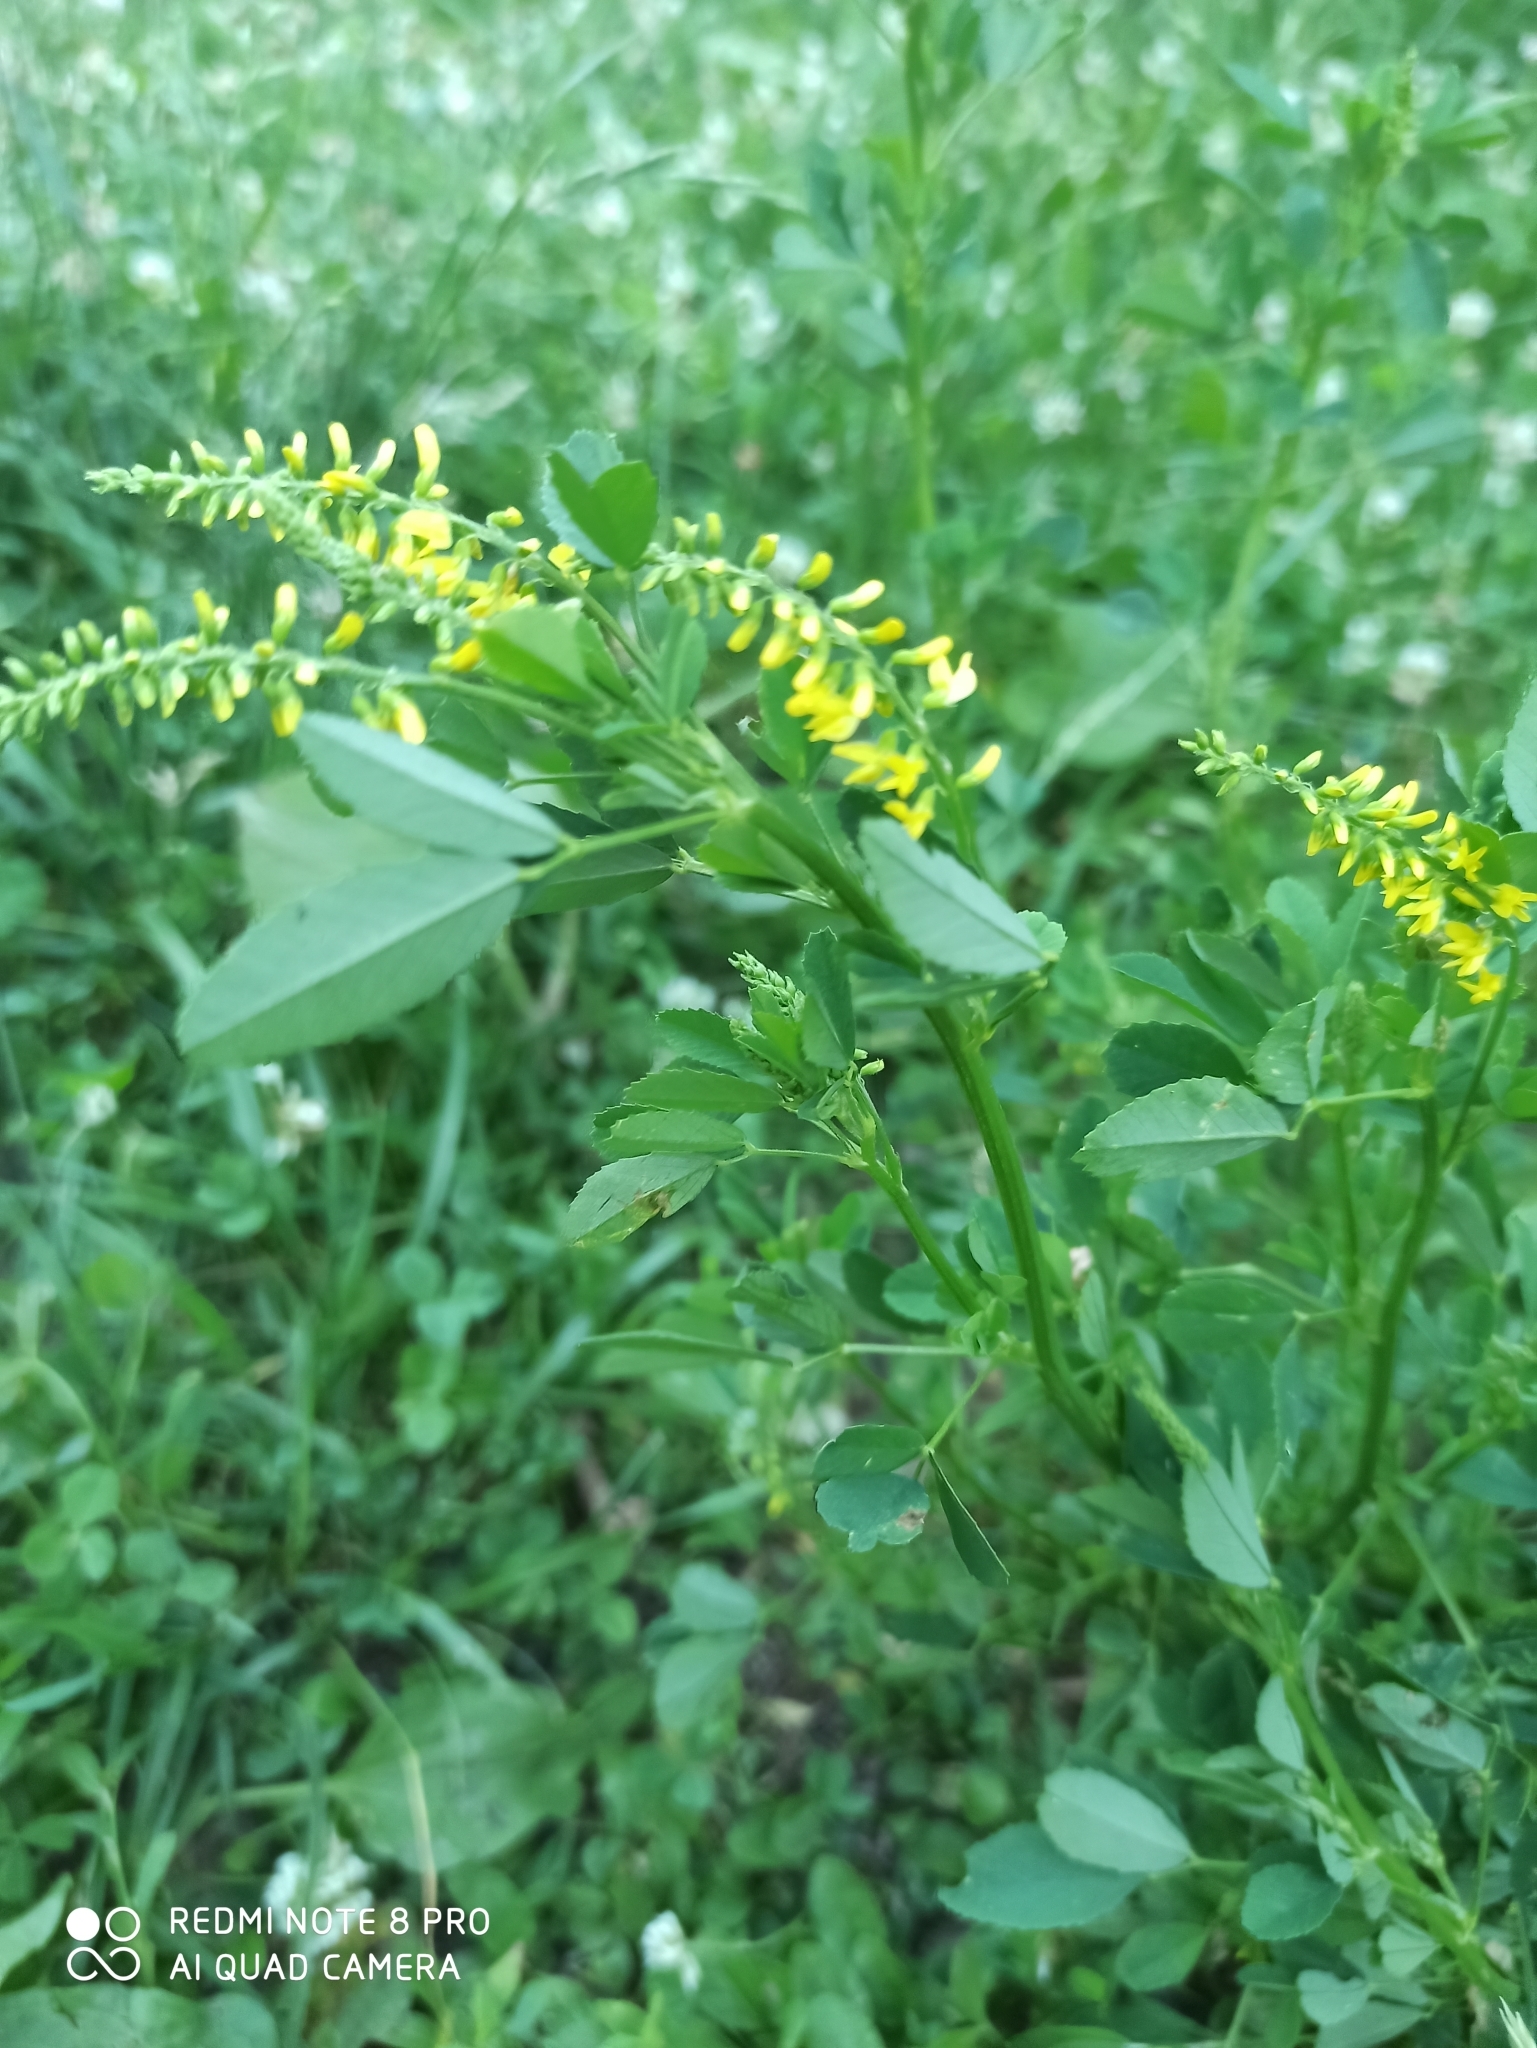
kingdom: Plantae
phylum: Tracheophyta
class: Magnoliopsida
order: Fabales
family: Fabaceae
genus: Melilotus
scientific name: Melilotus officinalis
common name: Sweetclover
